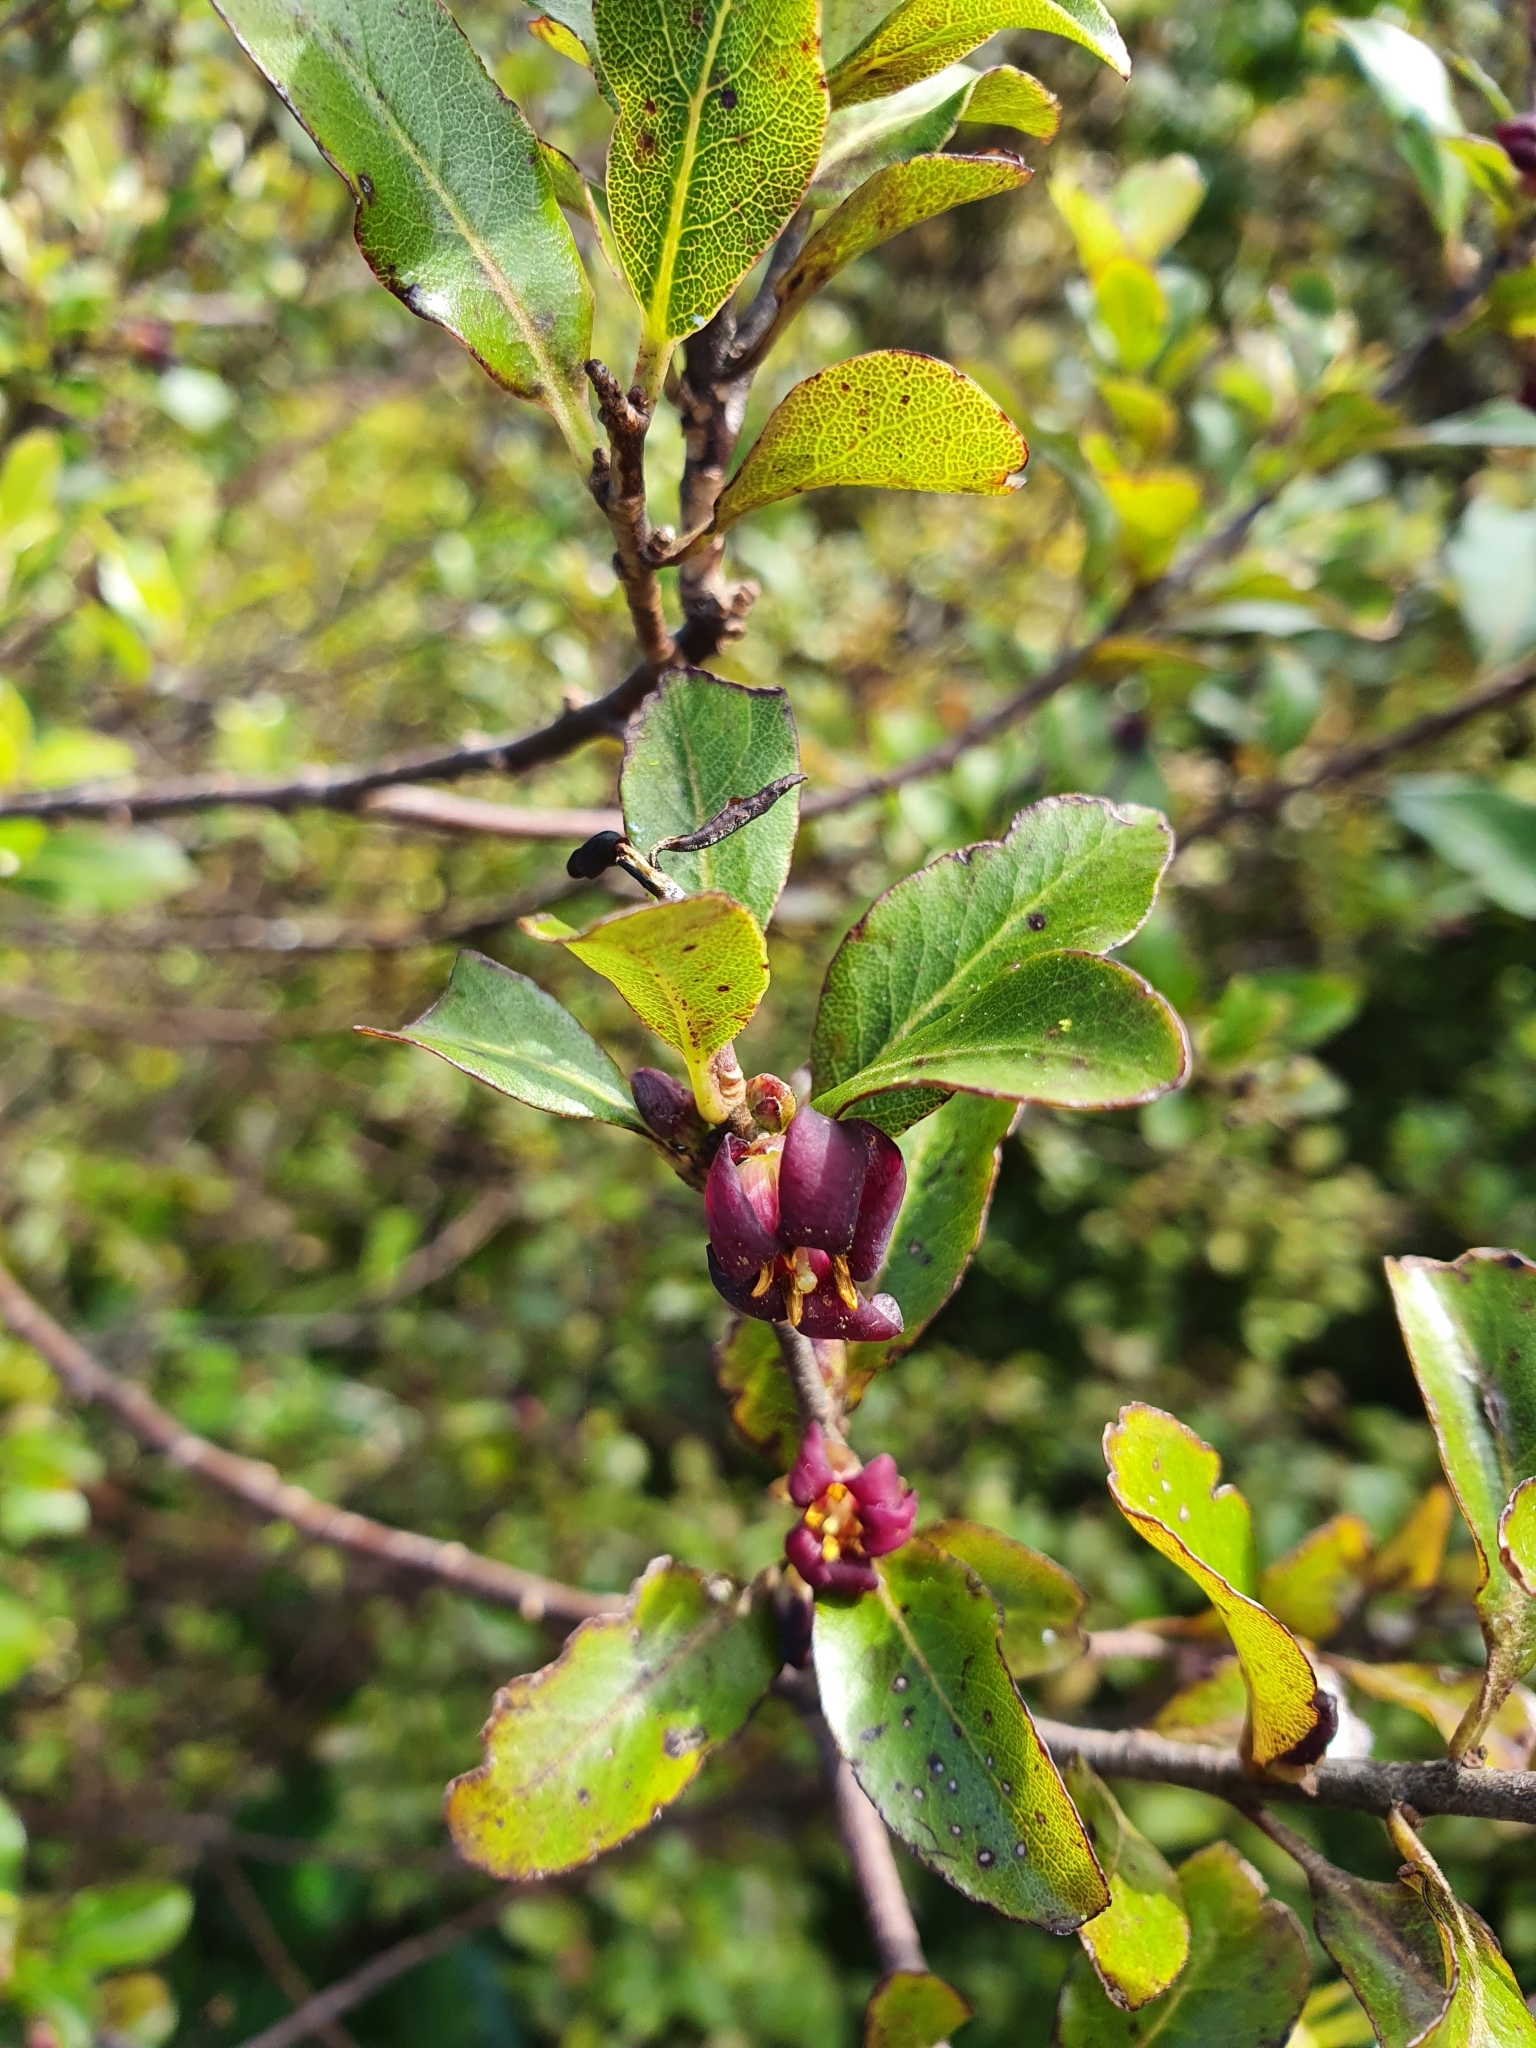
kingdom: Plantae
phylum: Tracheophyta
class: Magnoliopsida
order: Apiales
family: Pittosporaceae
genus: Pittosporum
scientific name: Pittosporum tenuifolium
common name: Kohuhu
